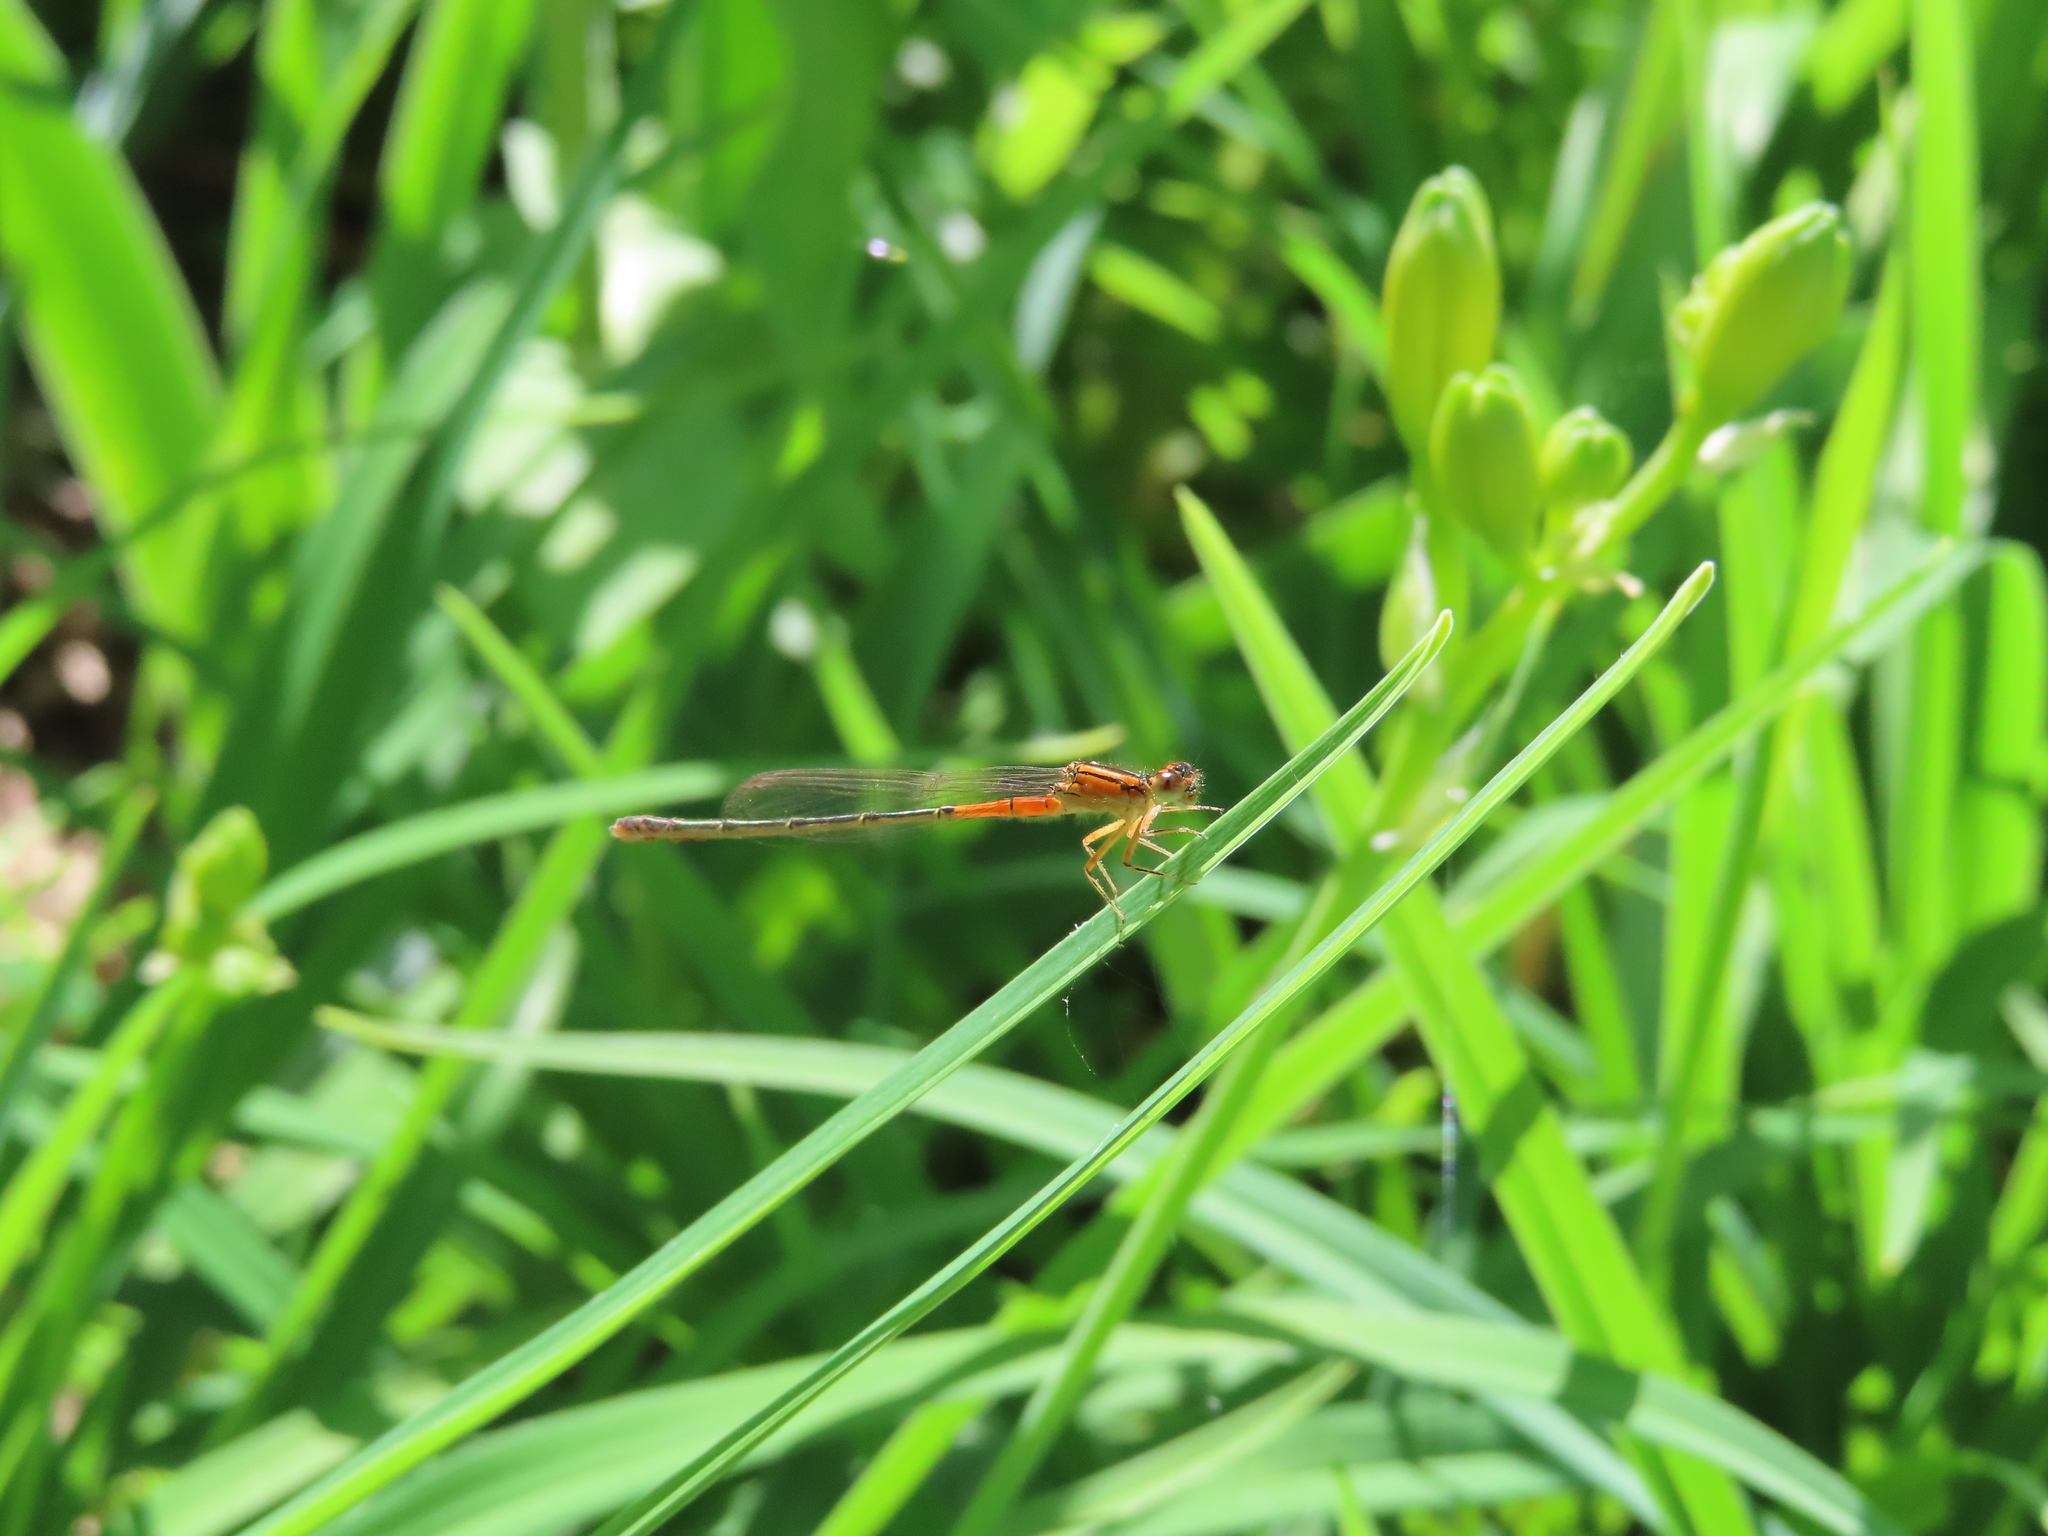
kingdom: Animalia
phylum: Arthropoda
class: Insecta
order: Odonata
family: Coenagrionidae
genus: Ischnura
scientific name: Ischnura verticalis
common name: Eastern forktail
